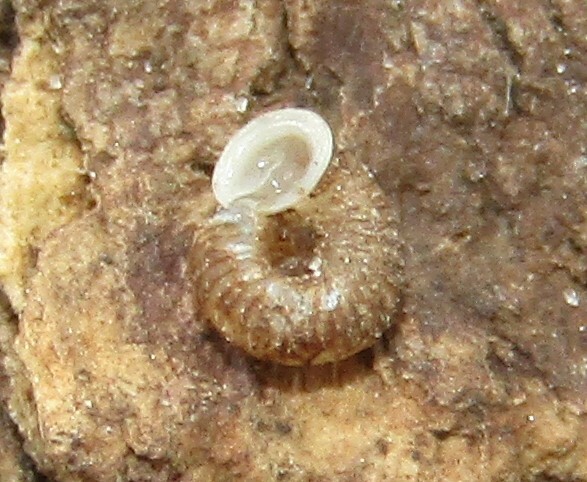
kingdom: Animalia
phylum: Mollusca
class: Gastropoda
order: Stylommatophora
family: Valloniidae
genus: Vallonia
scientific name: Vallonia costata
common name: Ribbed grass snail
